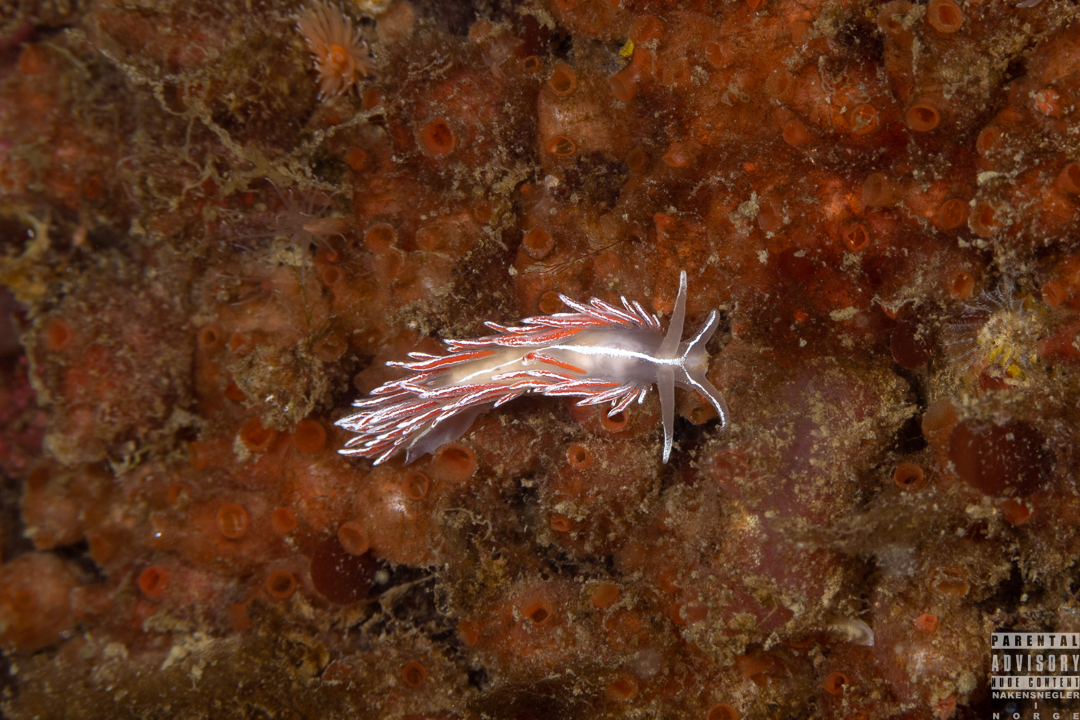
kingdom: Animalia
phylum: Mollusca
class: Gastropoda
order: Nudibranchia
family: Coryphellidae
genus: Coryphella
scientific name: Coryphella lineata
